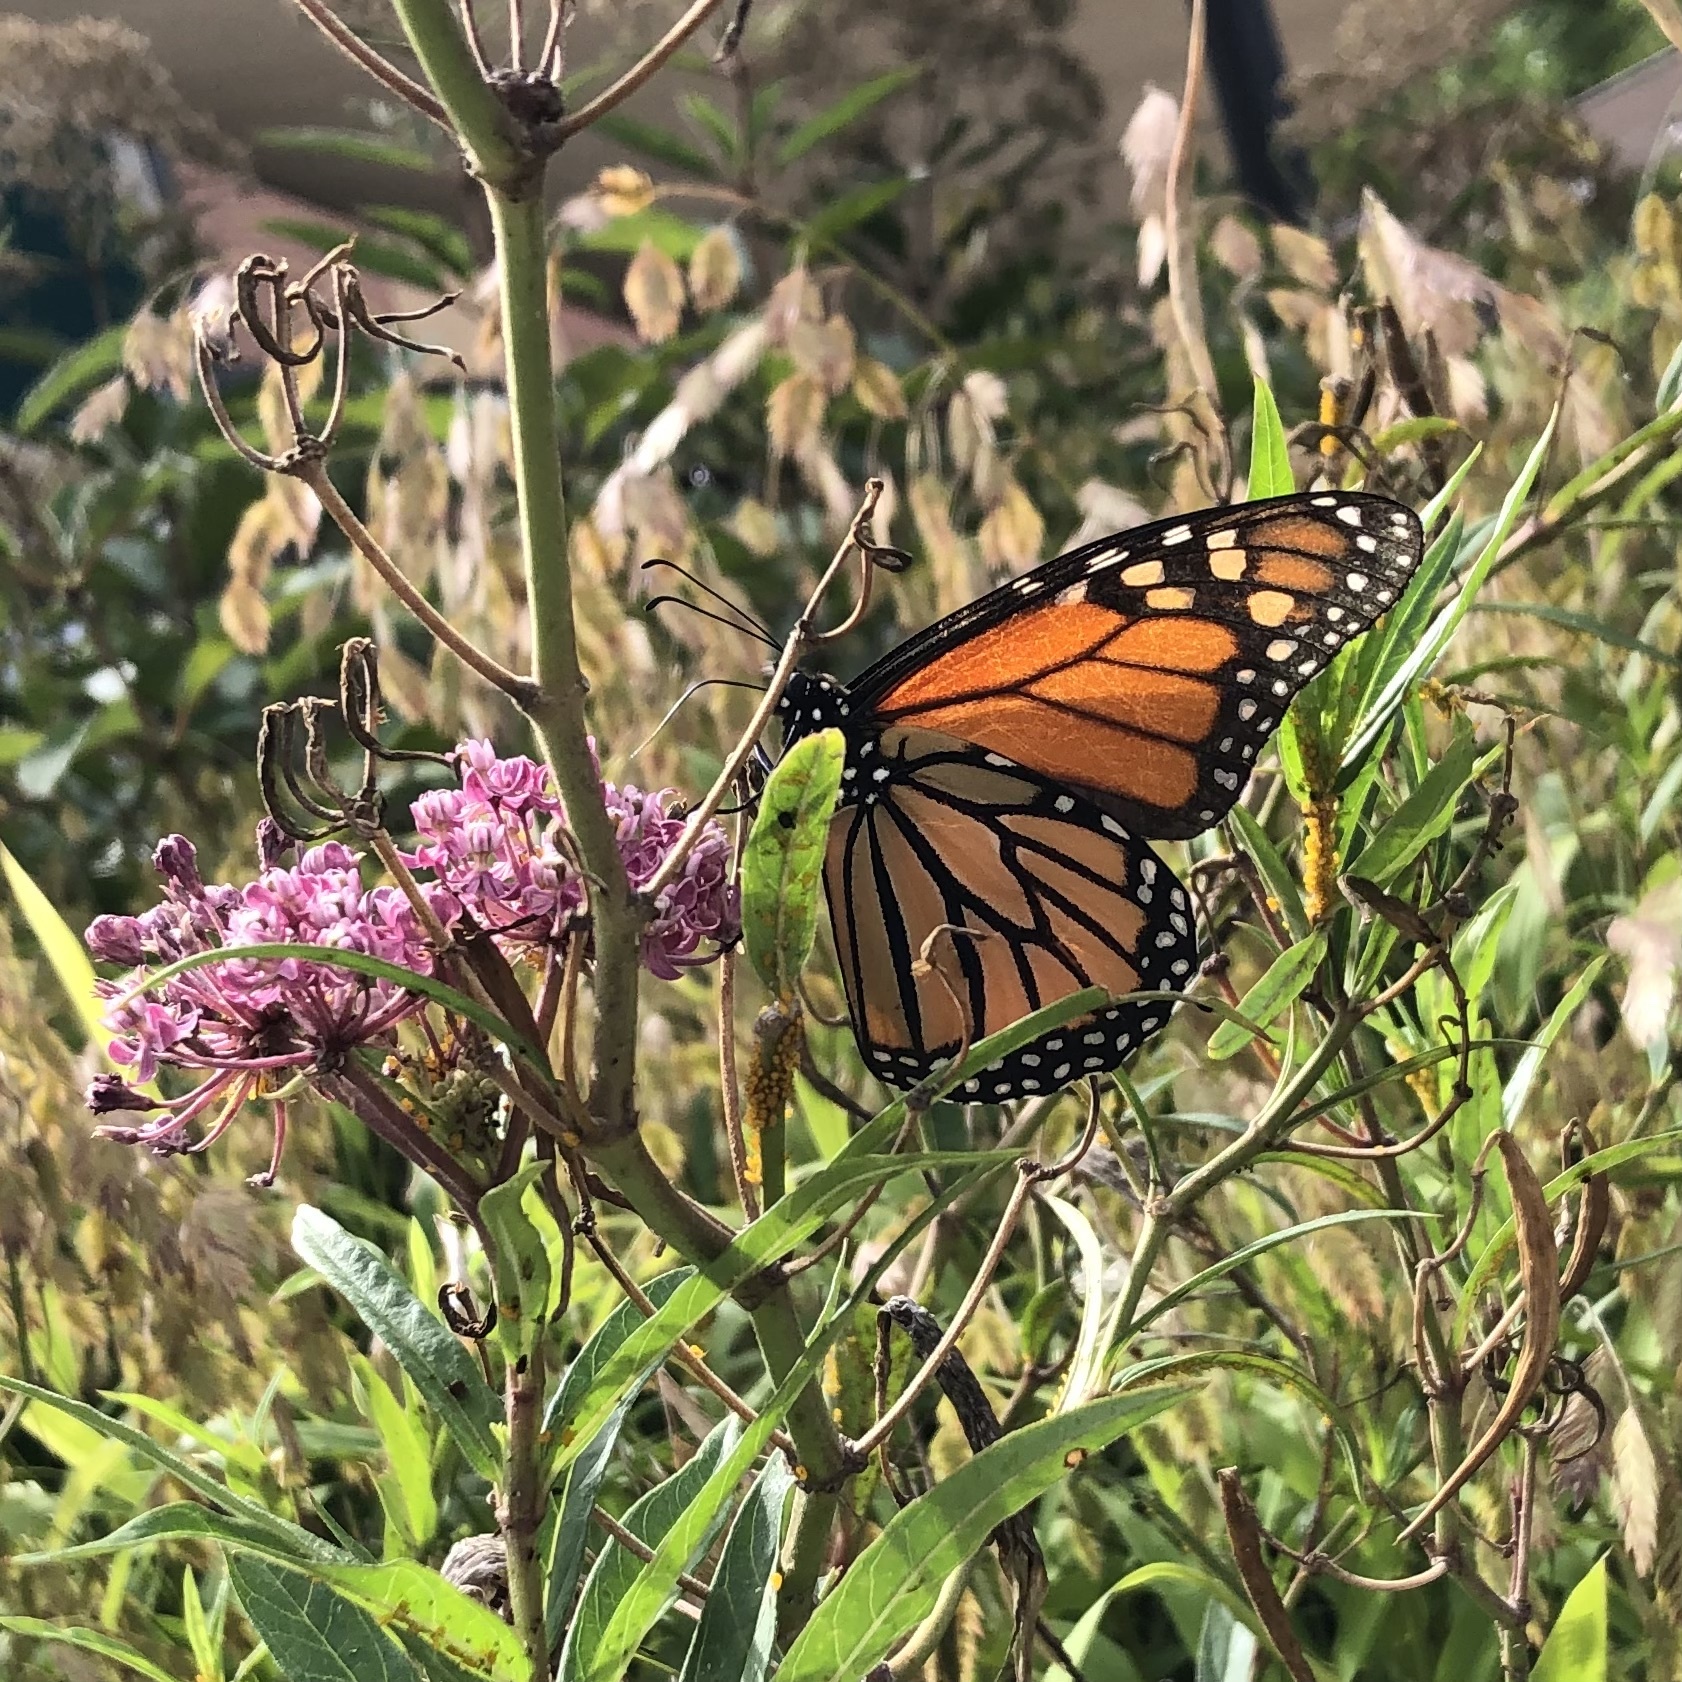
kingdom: Animalia
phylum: Arthropoda
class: Insecta
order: Lepidoptera
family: Nymphalidae
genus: Danaus
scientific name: Danaus plexippus
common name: Monarch
